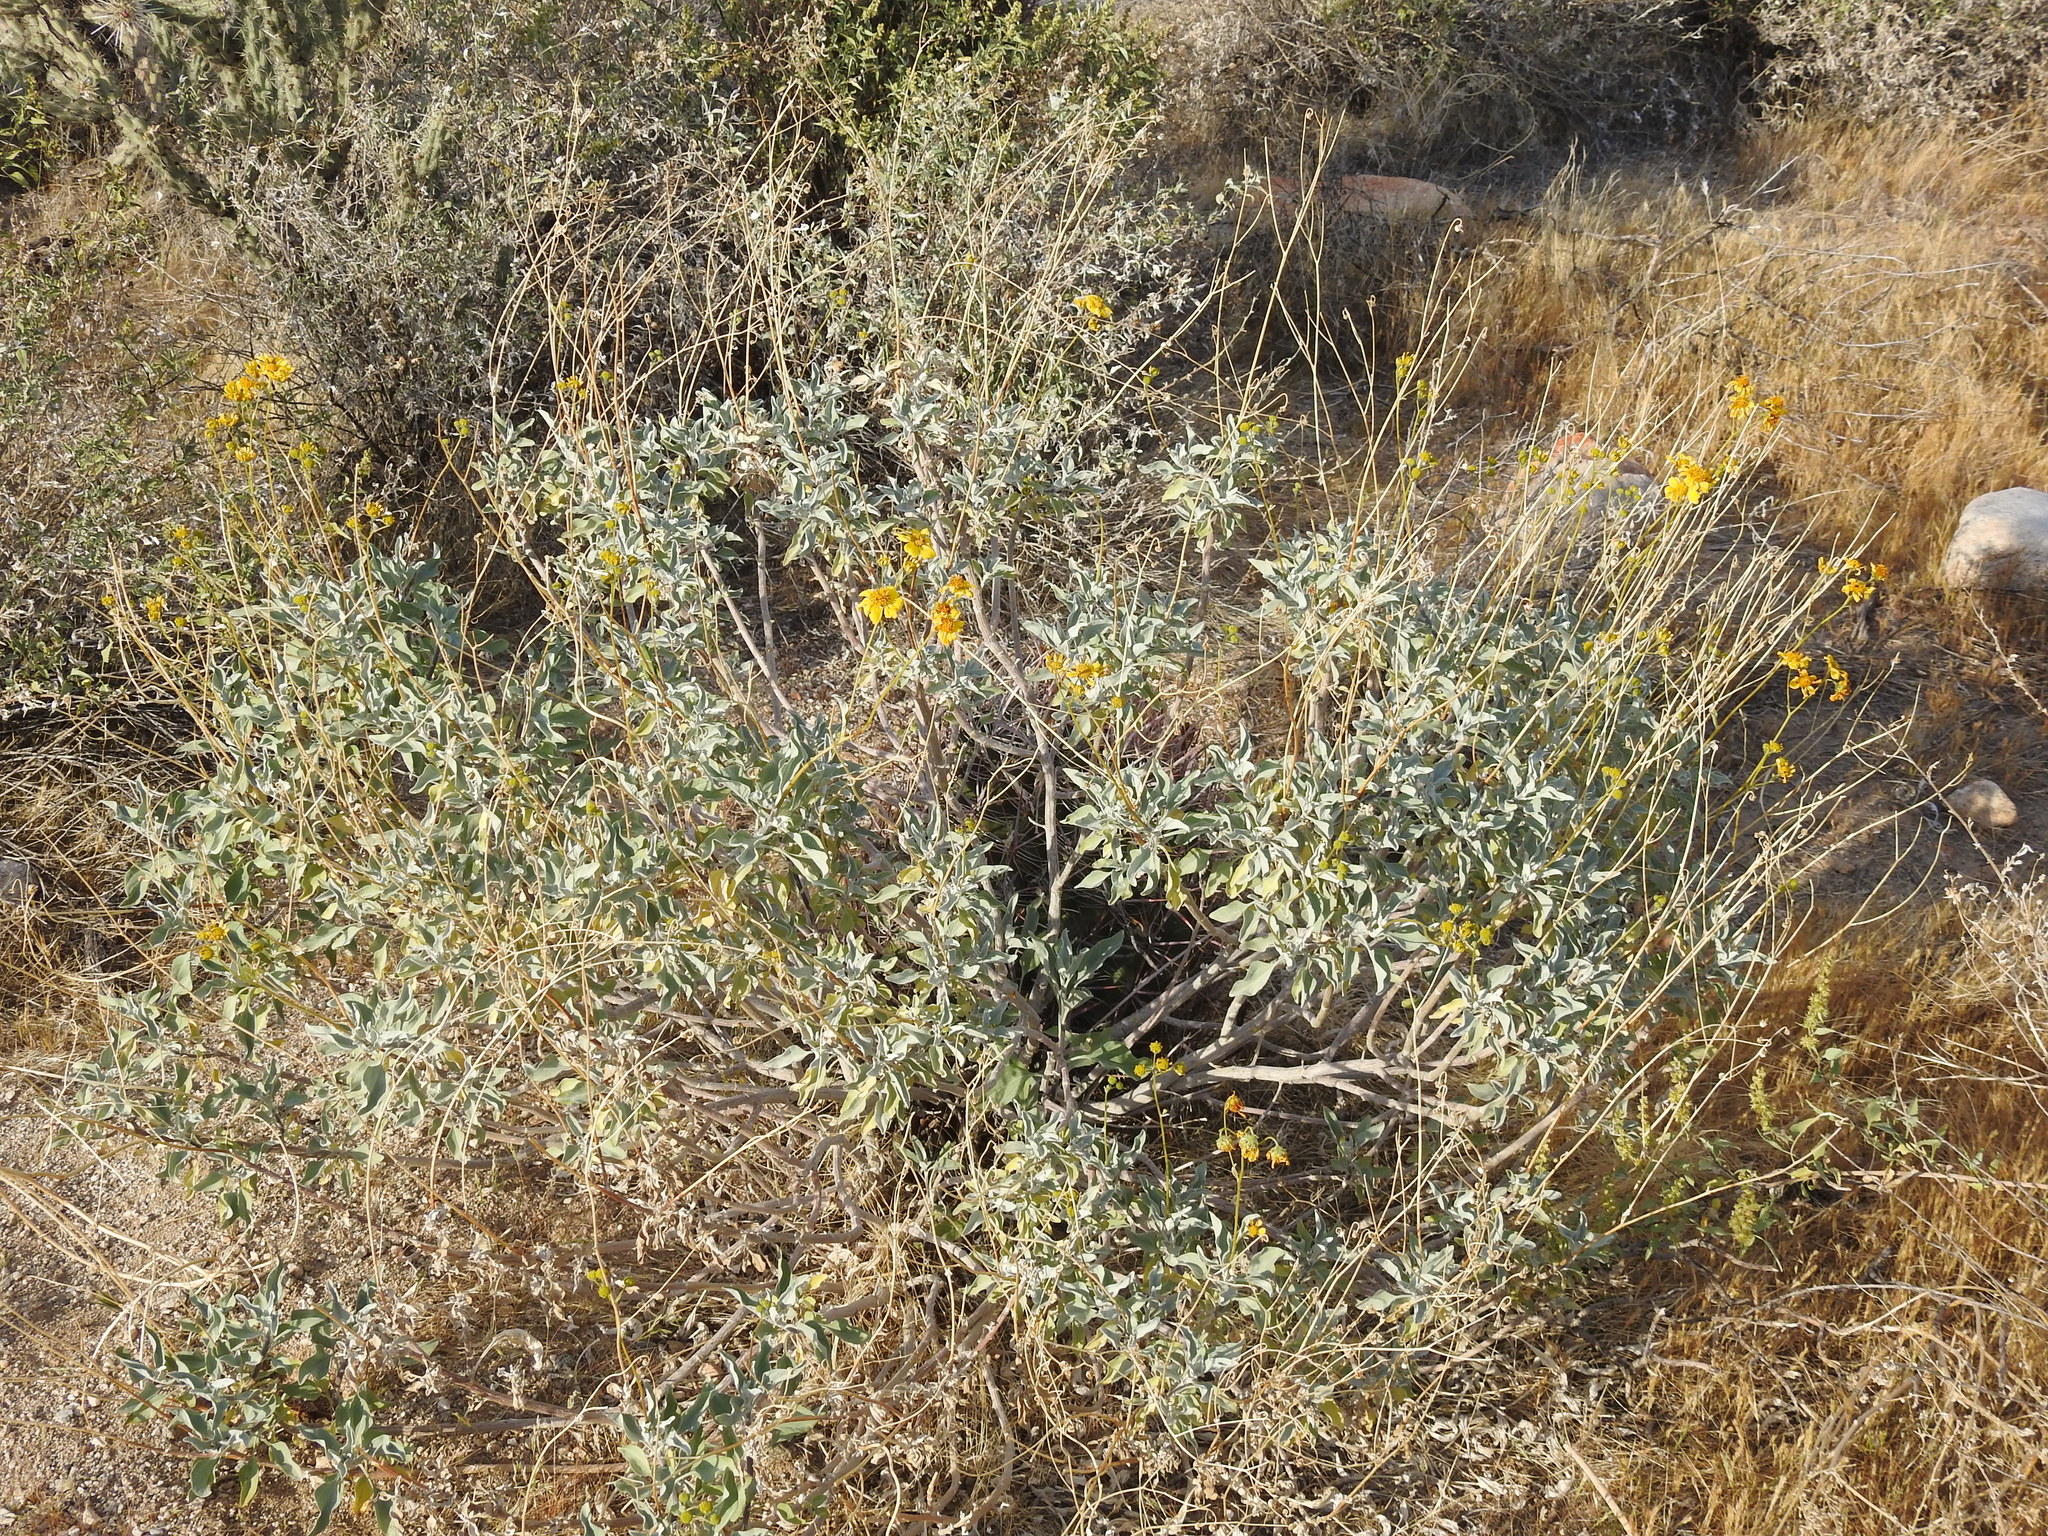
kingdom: Plantae
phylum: Tracheophyta
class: Magnoliopsida
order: Asterales
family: Asteraceae
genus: Encelia
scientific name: Encelia farinosa
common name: Brittlebush
